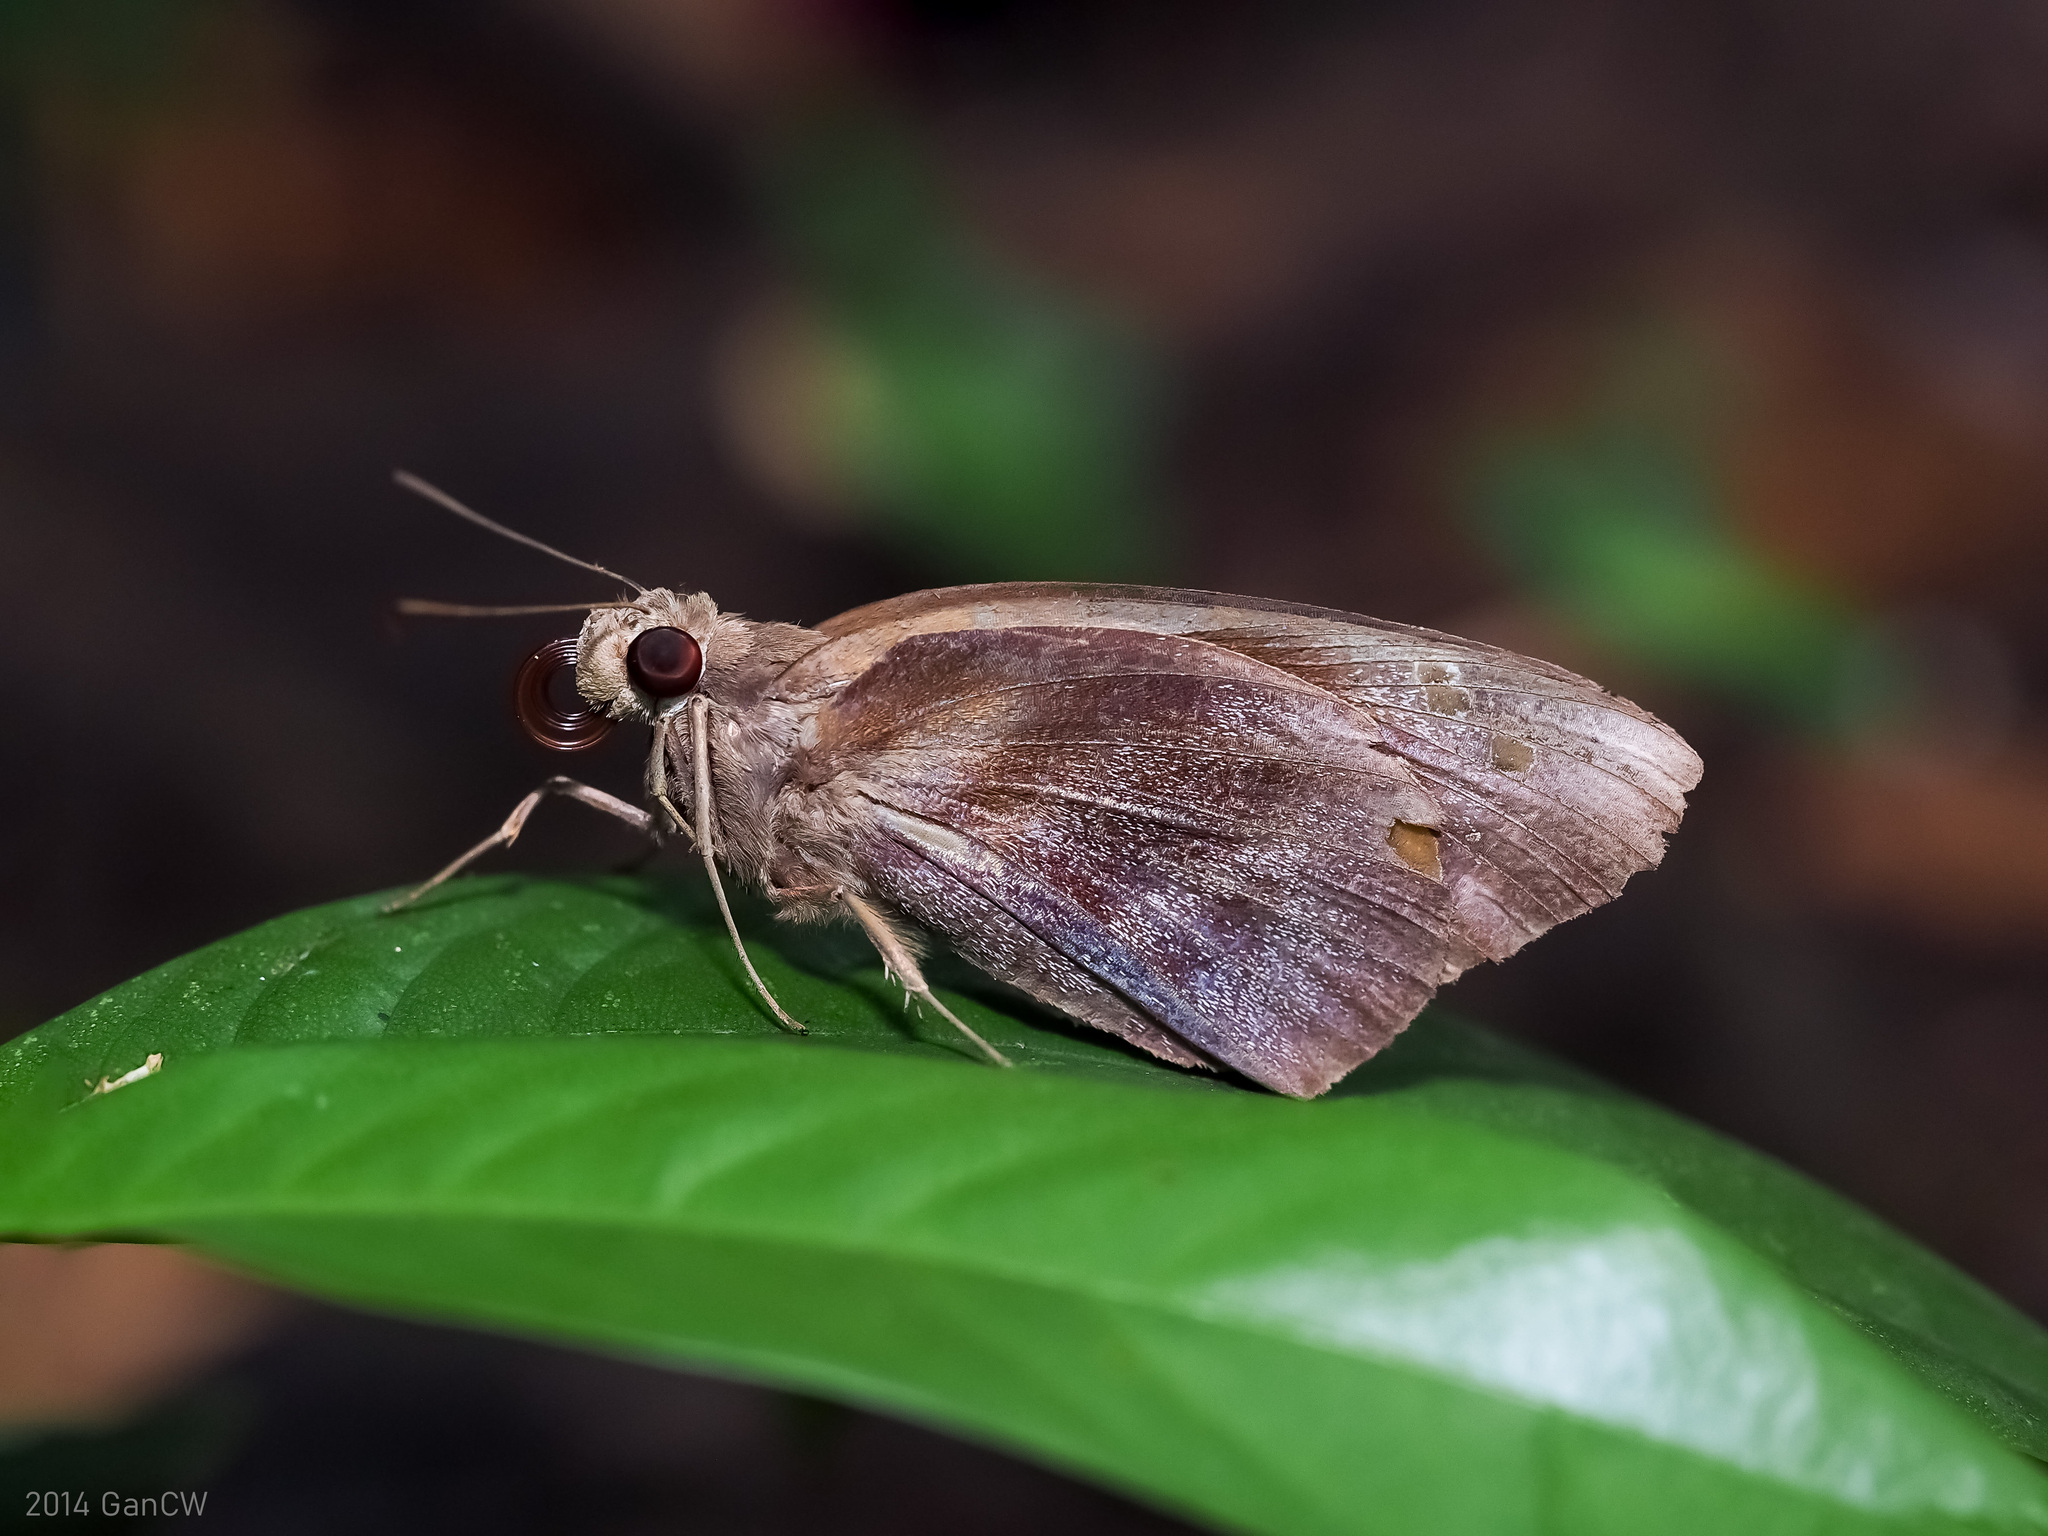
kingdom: Animalia
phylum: Arthropoda
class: Insecta
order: Lepidoptera
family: Hesperiidae
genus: Gangara
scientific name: Gangara thyrsis
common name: Giant redeye
